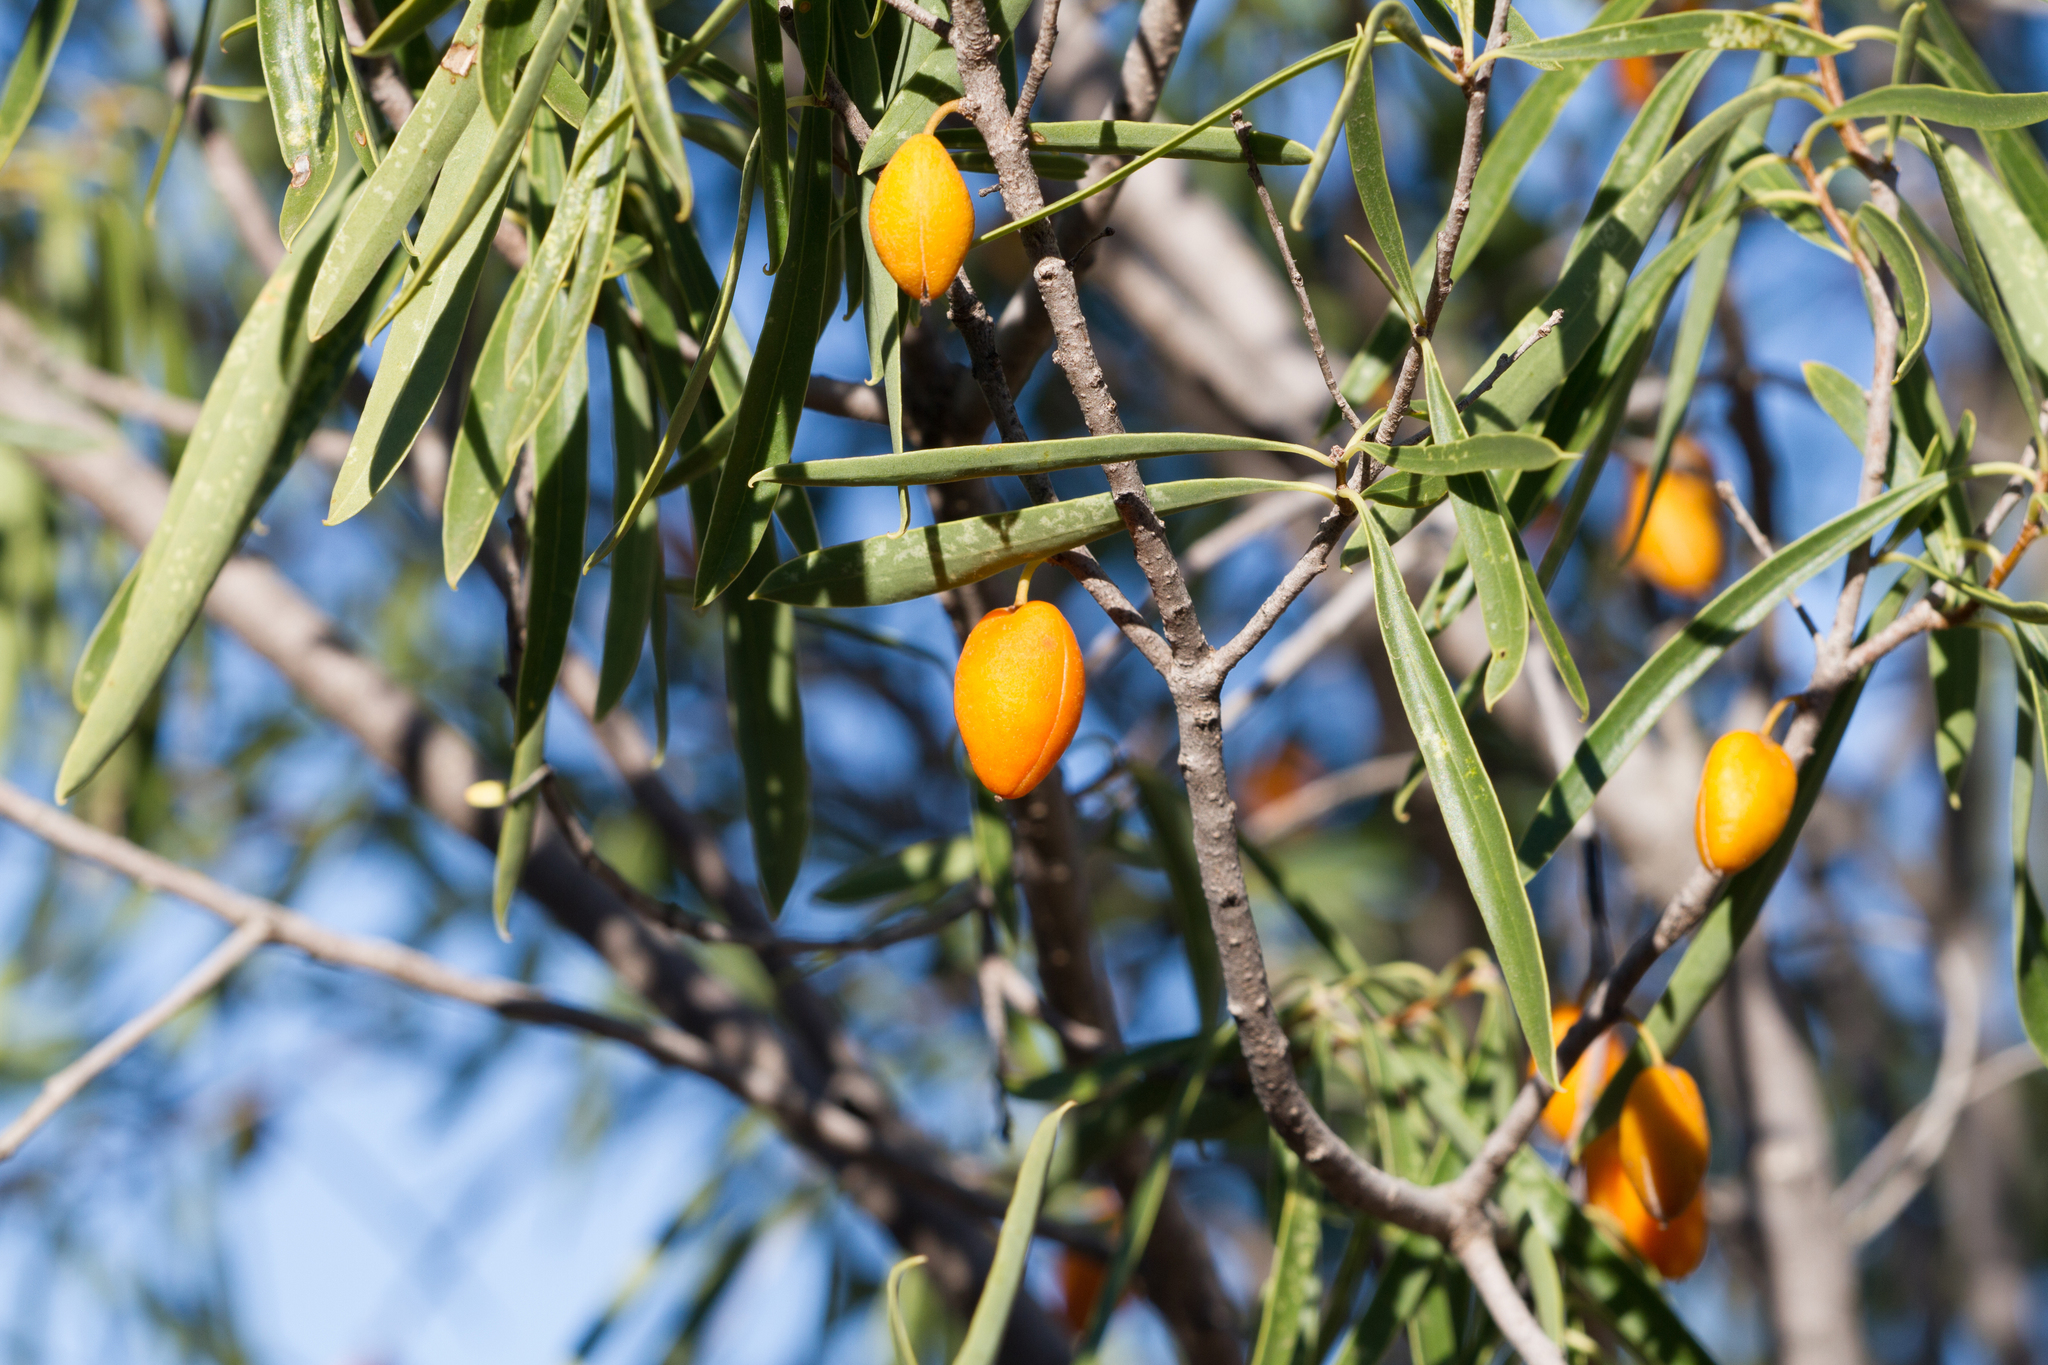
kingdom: Plantae
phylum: Tracheophyta
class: Magnoliopsida
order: Apiales
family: Pittosporaceae
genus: Pittosporum
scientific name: Pittosporum angustifolium
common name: Weeping pittosporum
